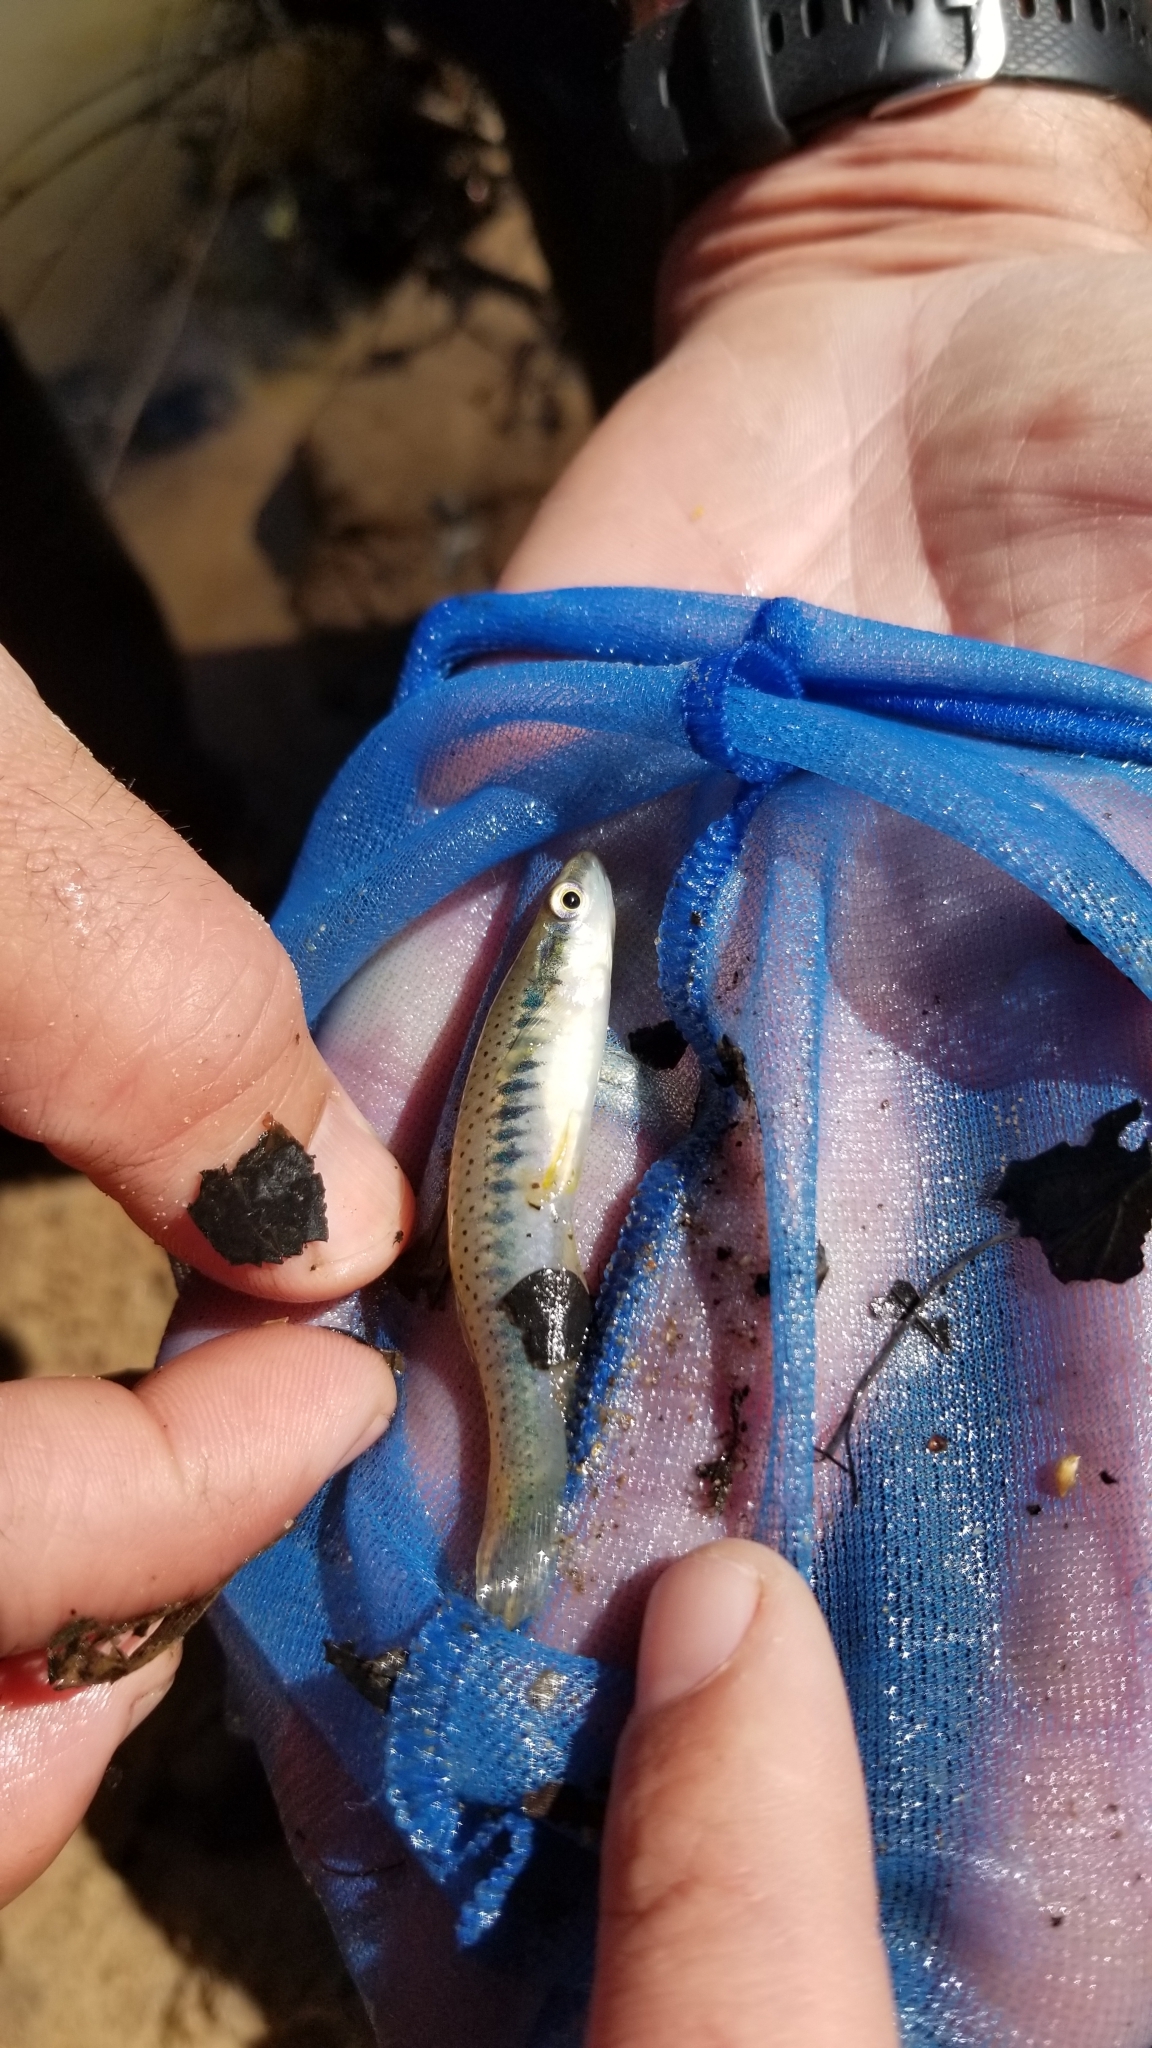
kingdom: Animalia
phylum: Chordata
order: Cyprinodontiformes
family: Fundulidae
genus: Fundulus
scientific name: Fundulus olivaceus
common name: Blackspotted topminnow
